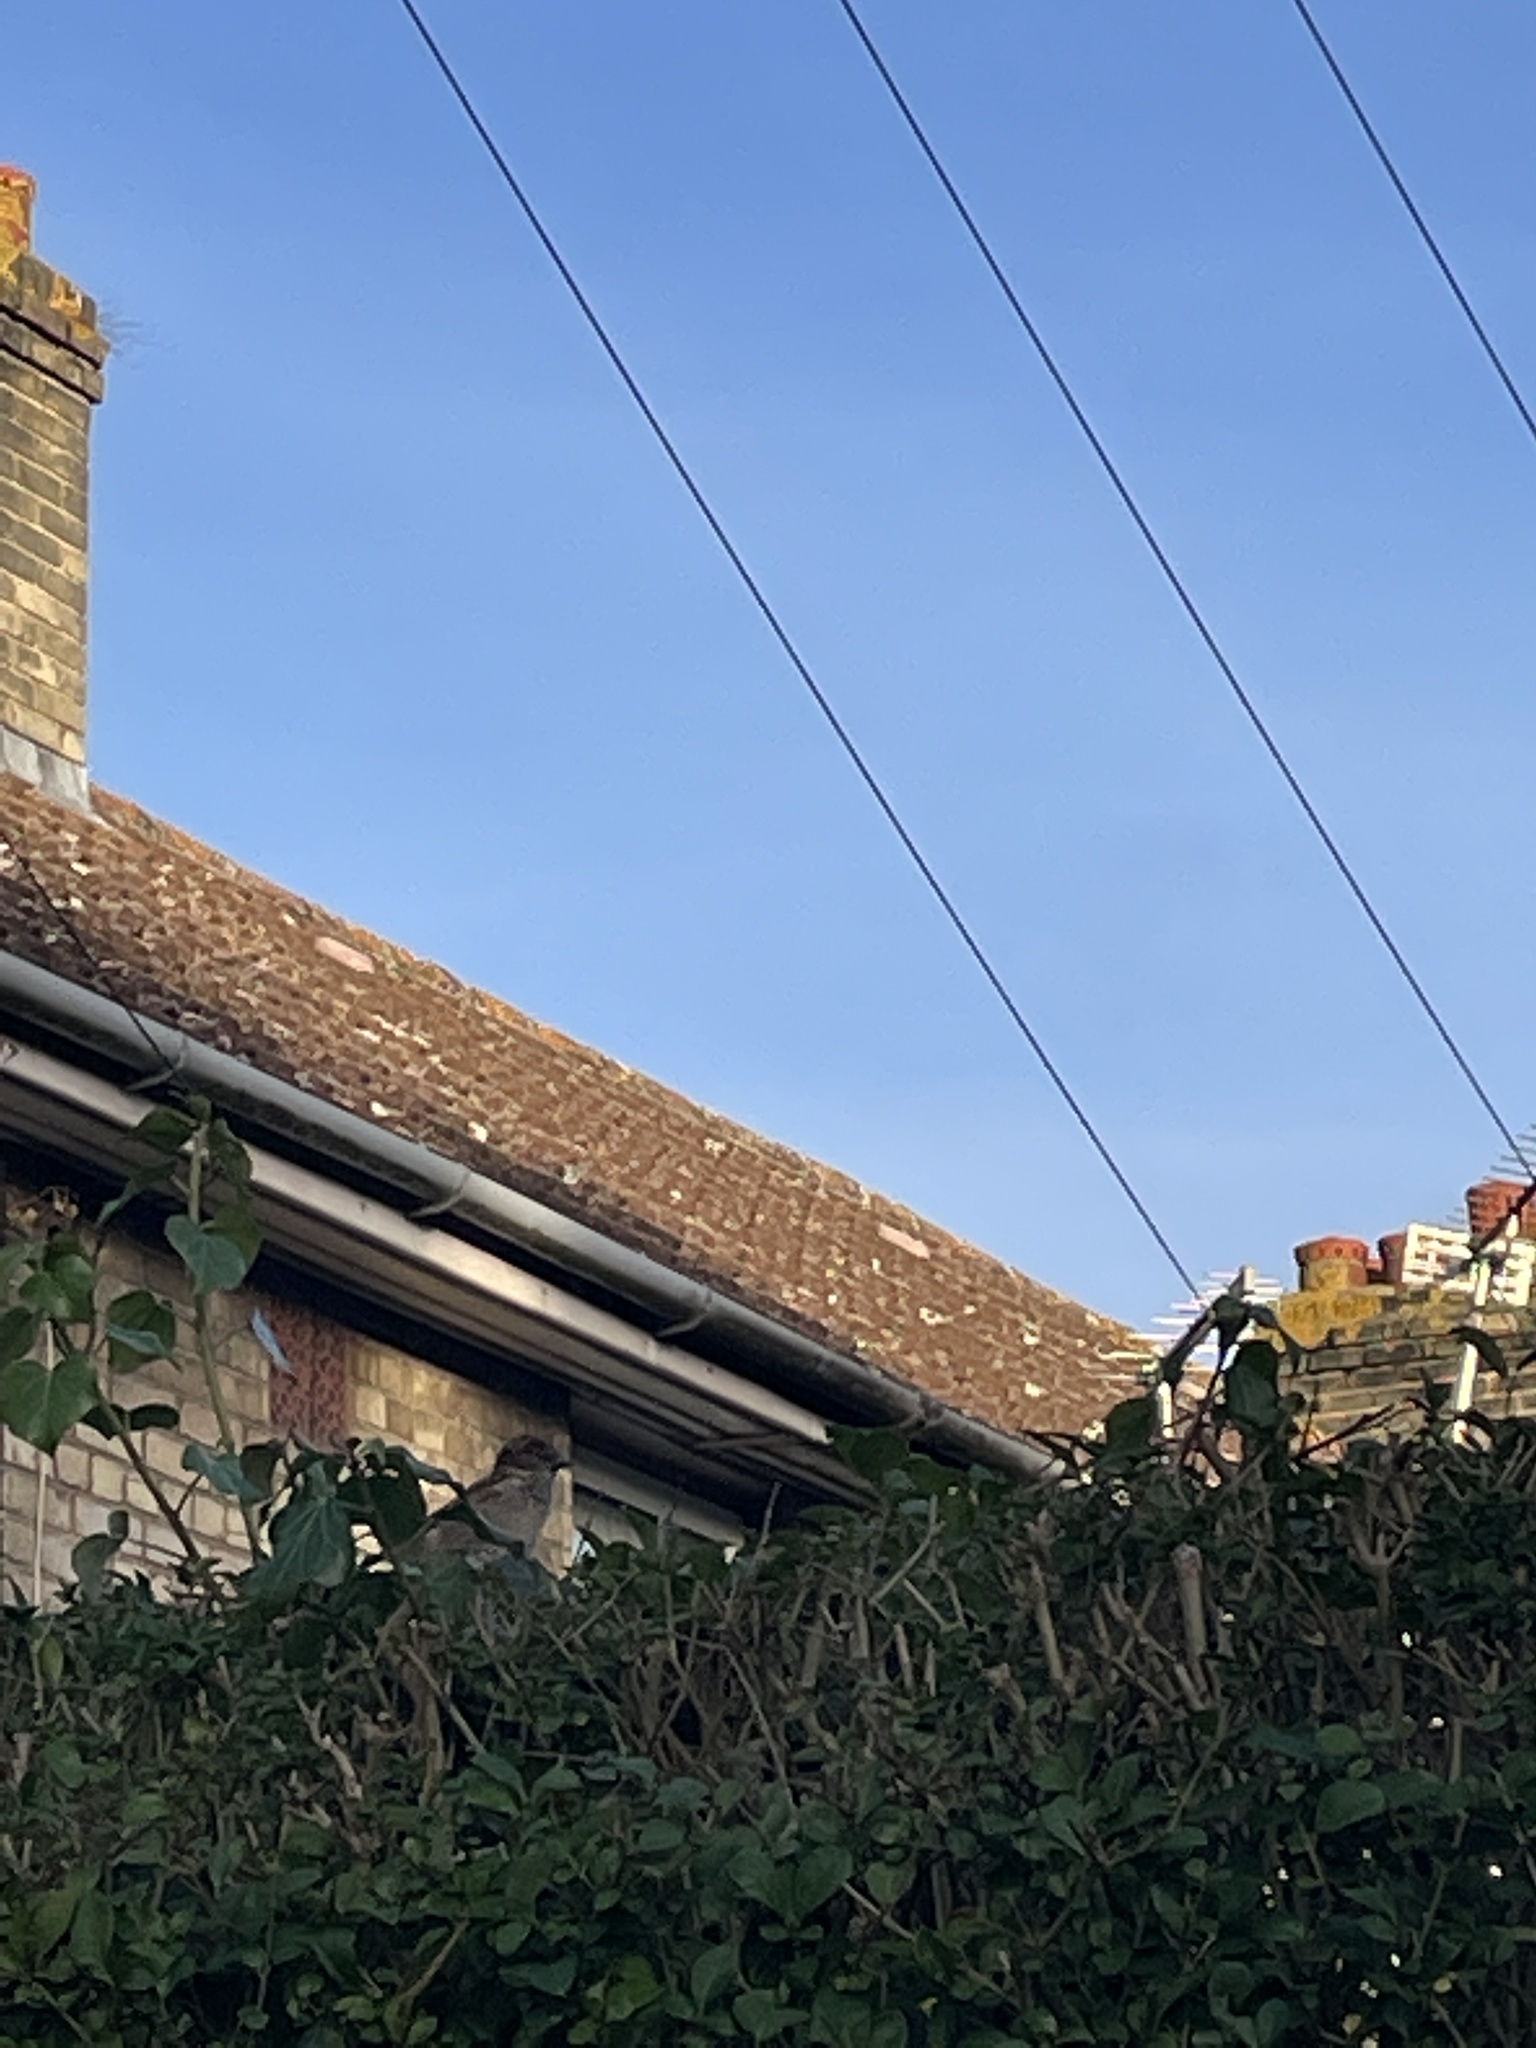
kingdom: Animalia
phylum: Chordata
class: Aves
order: Passeriformes
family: Passeridae
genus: Passer
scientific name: Passer domesticus
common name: House sparrow
